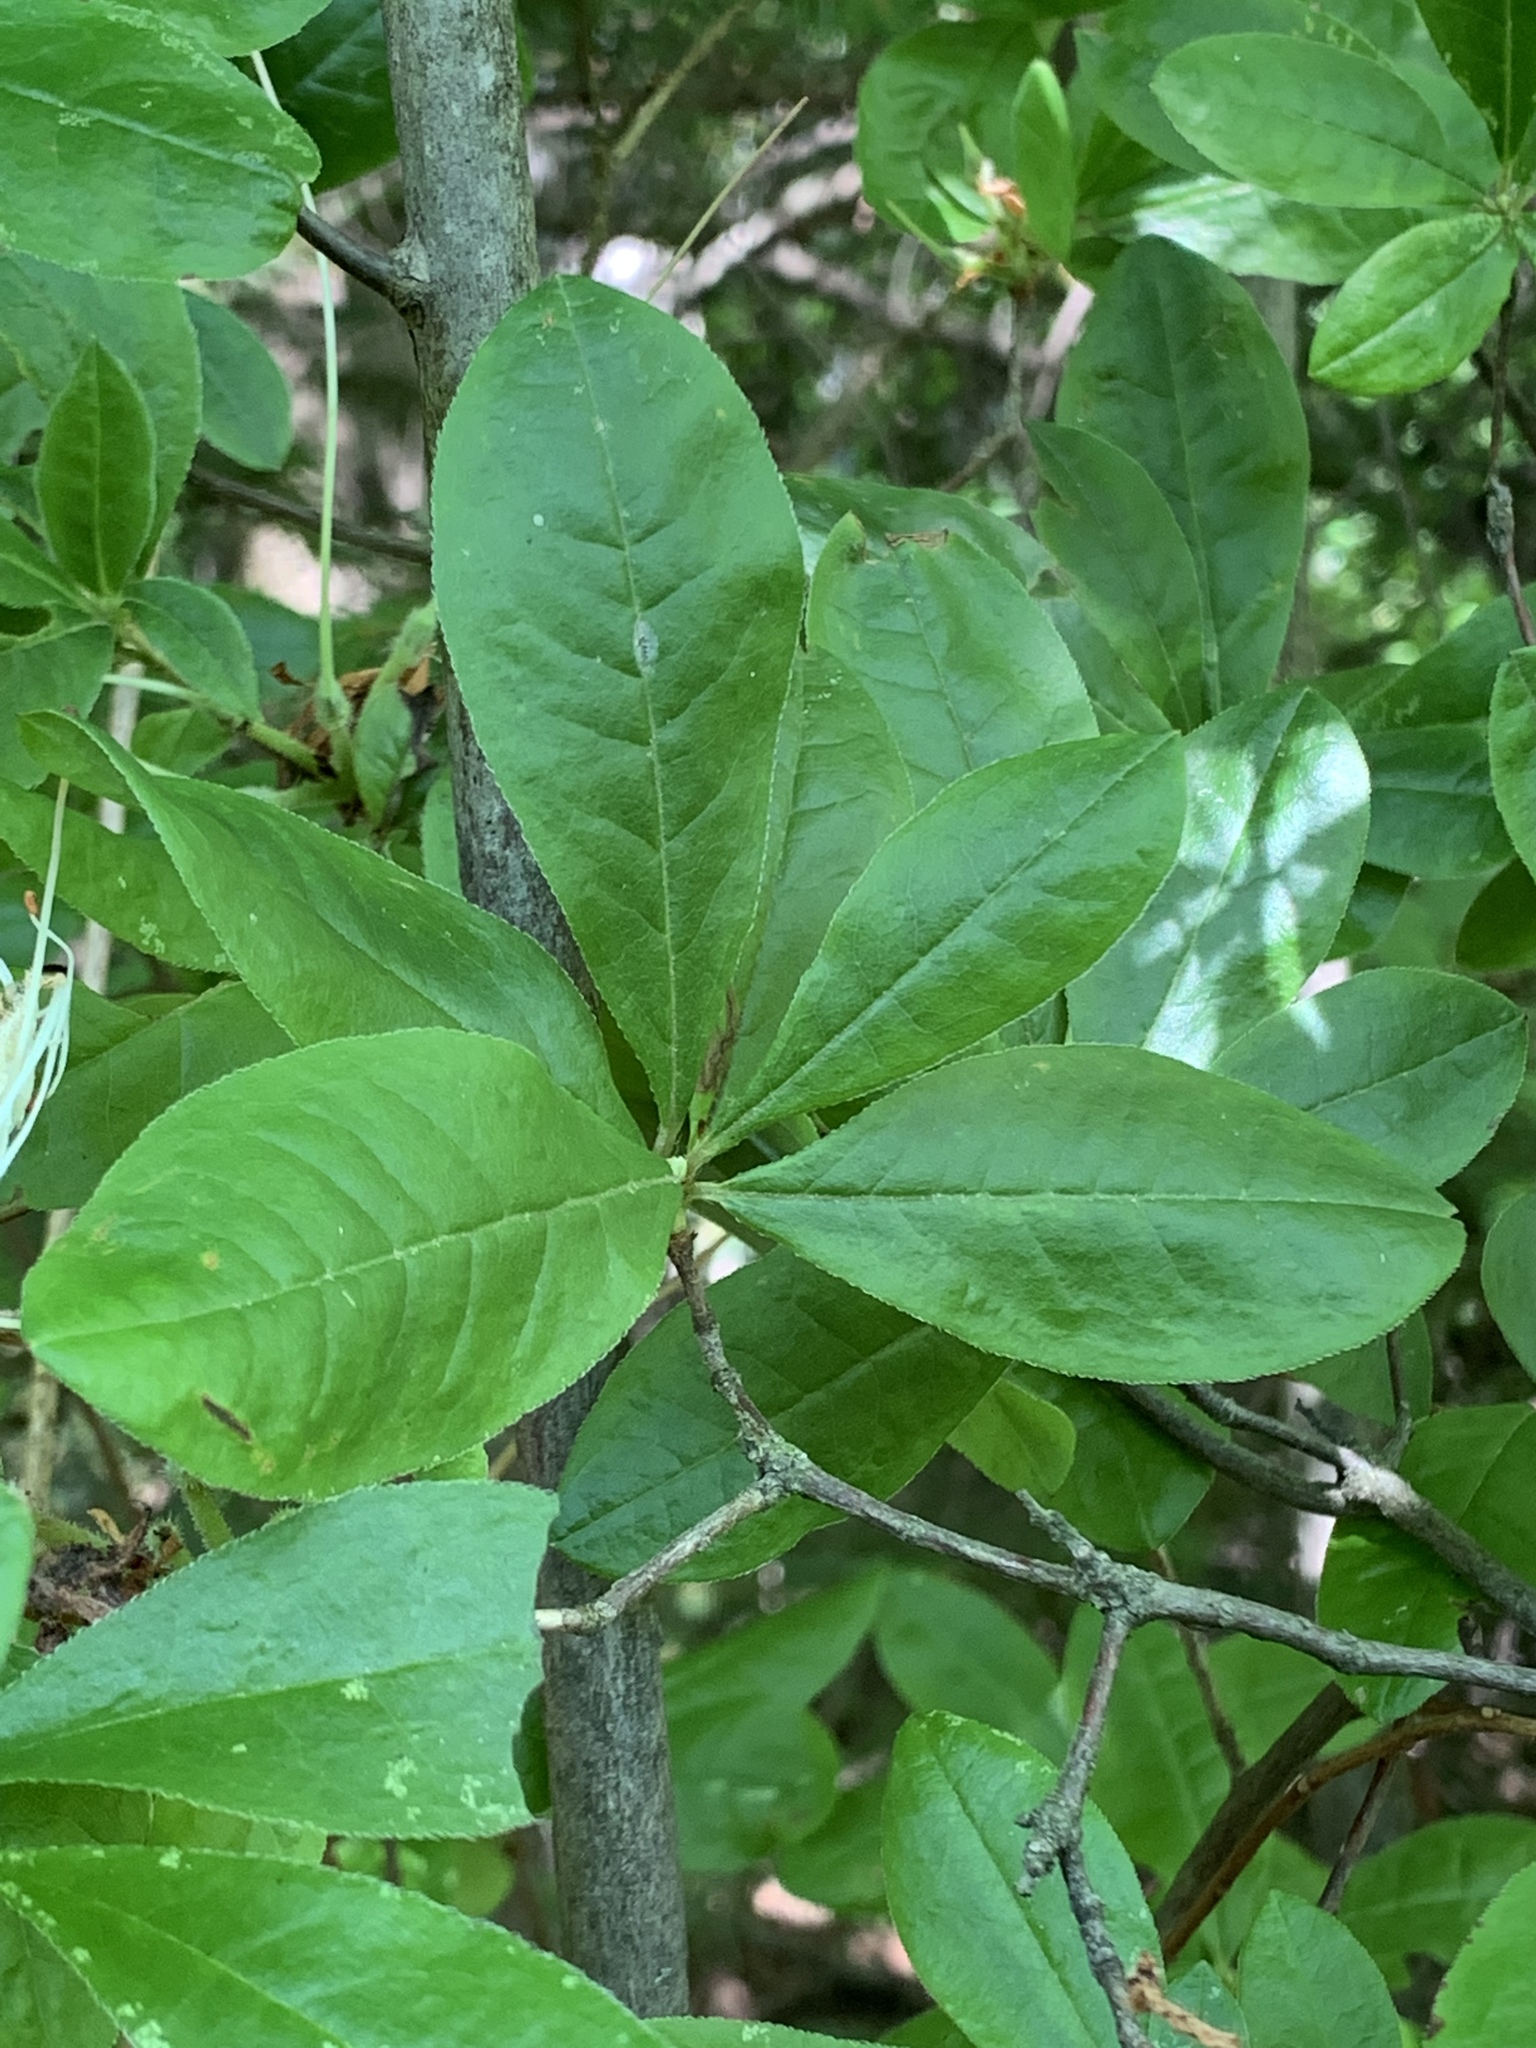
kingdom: Plantae
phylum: Tracheophyta
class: Magnoliopsida
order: Ericales
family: Ericaceae
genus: Rhododendron
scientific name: Rhododendron viscosum
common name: Clammy azalea
